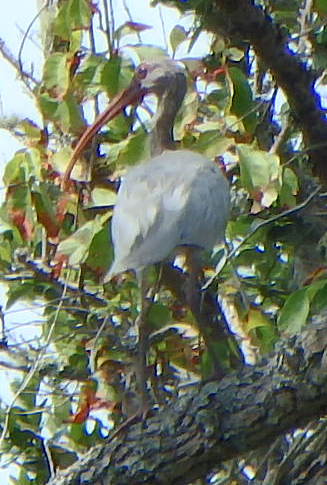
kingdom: Animalia
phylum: Chordata
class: Aves
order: Pelecaniformes
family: Threskiornithidae
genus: Eudocimus
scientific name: Eudocimus albus
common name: White ibis
